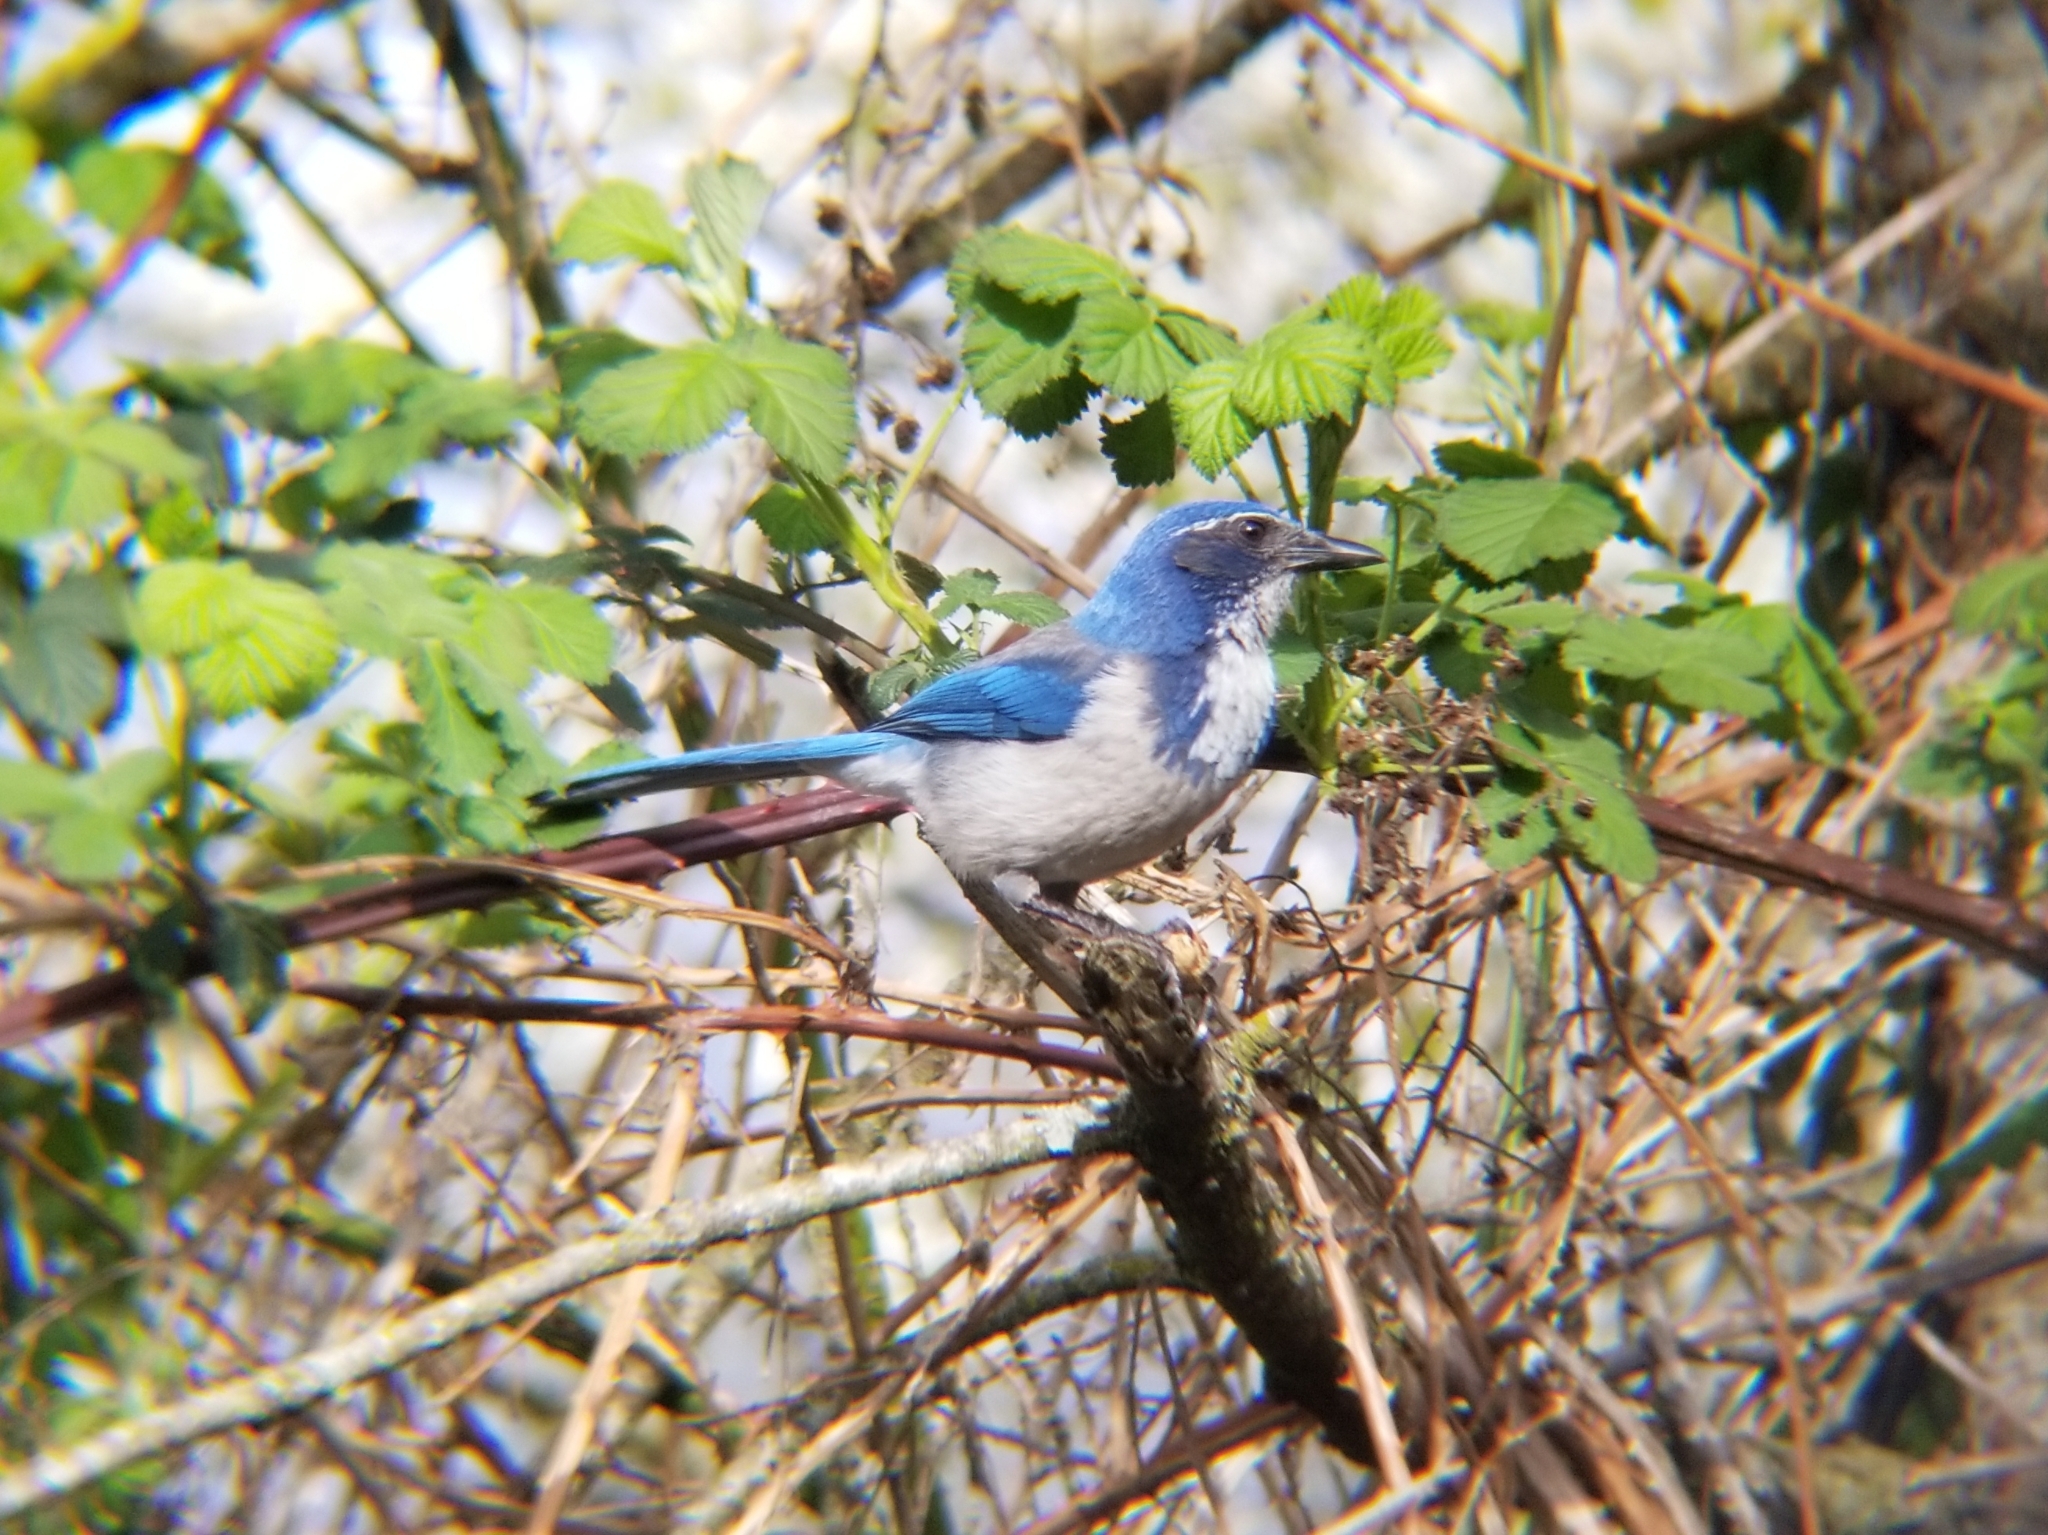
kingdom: Animalia
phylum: Chordata
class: Aves
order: Passeriformes
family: Corvidae
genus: Aphelocoma
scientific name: Aphelocoma californica
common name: California scrub-jay
